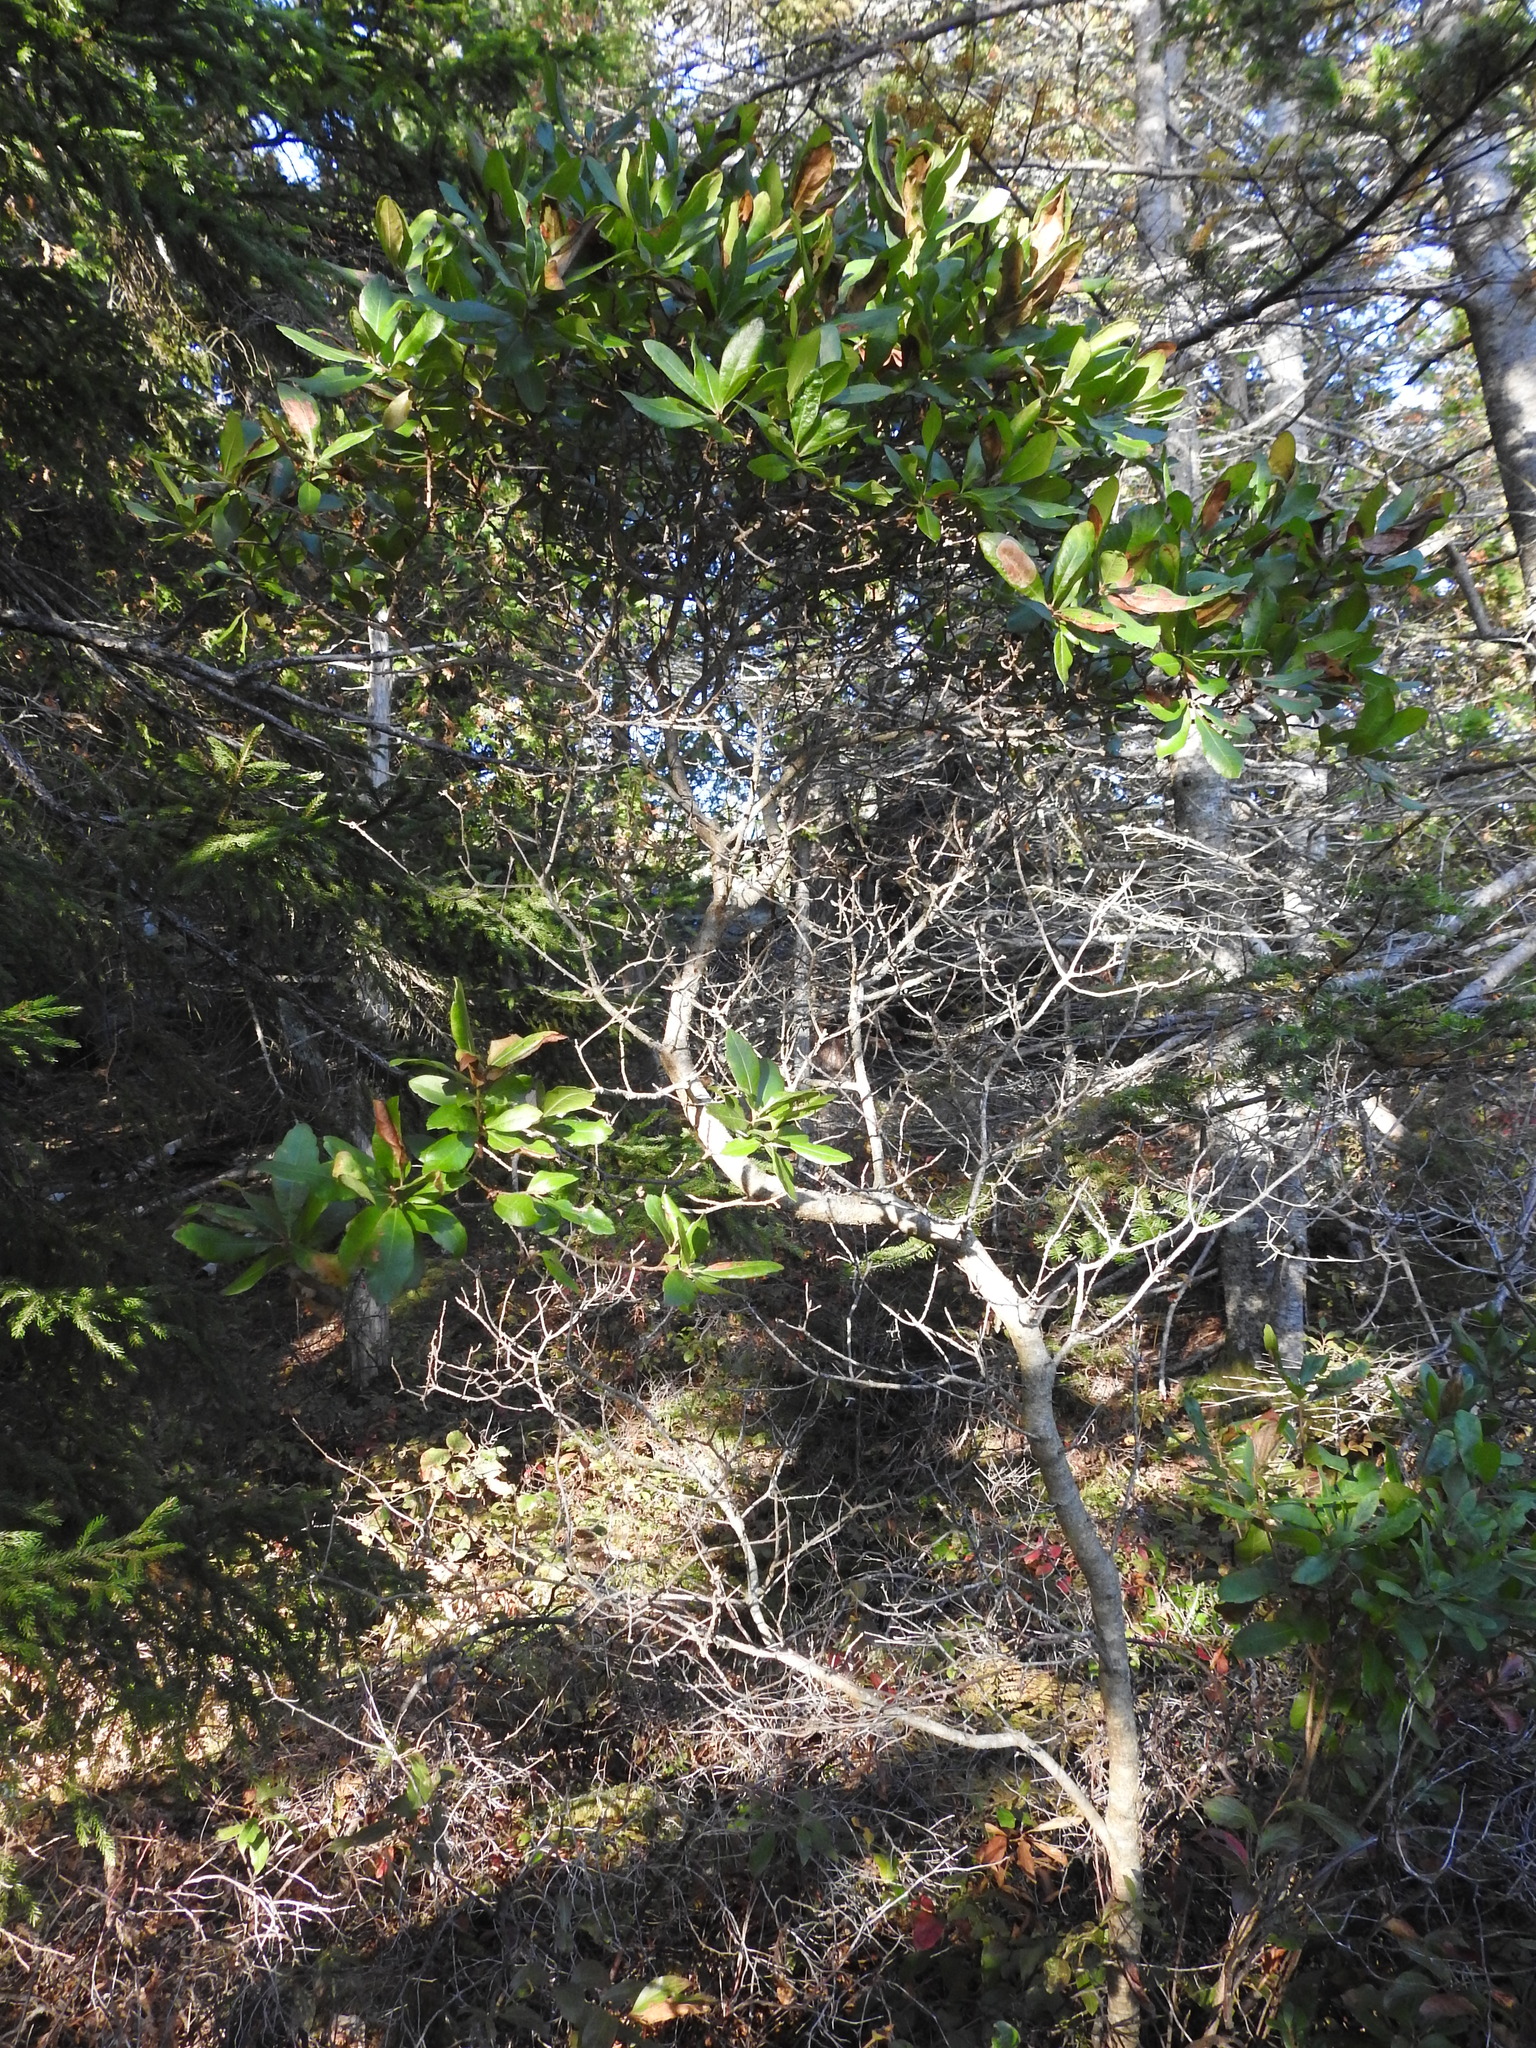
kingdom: Plantae
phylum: Tracheophyta
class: Magnoliopsida
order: Fagales
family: Myricaceae
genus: Morella
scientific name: Morella pensylvanica
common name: Northern bayberry
